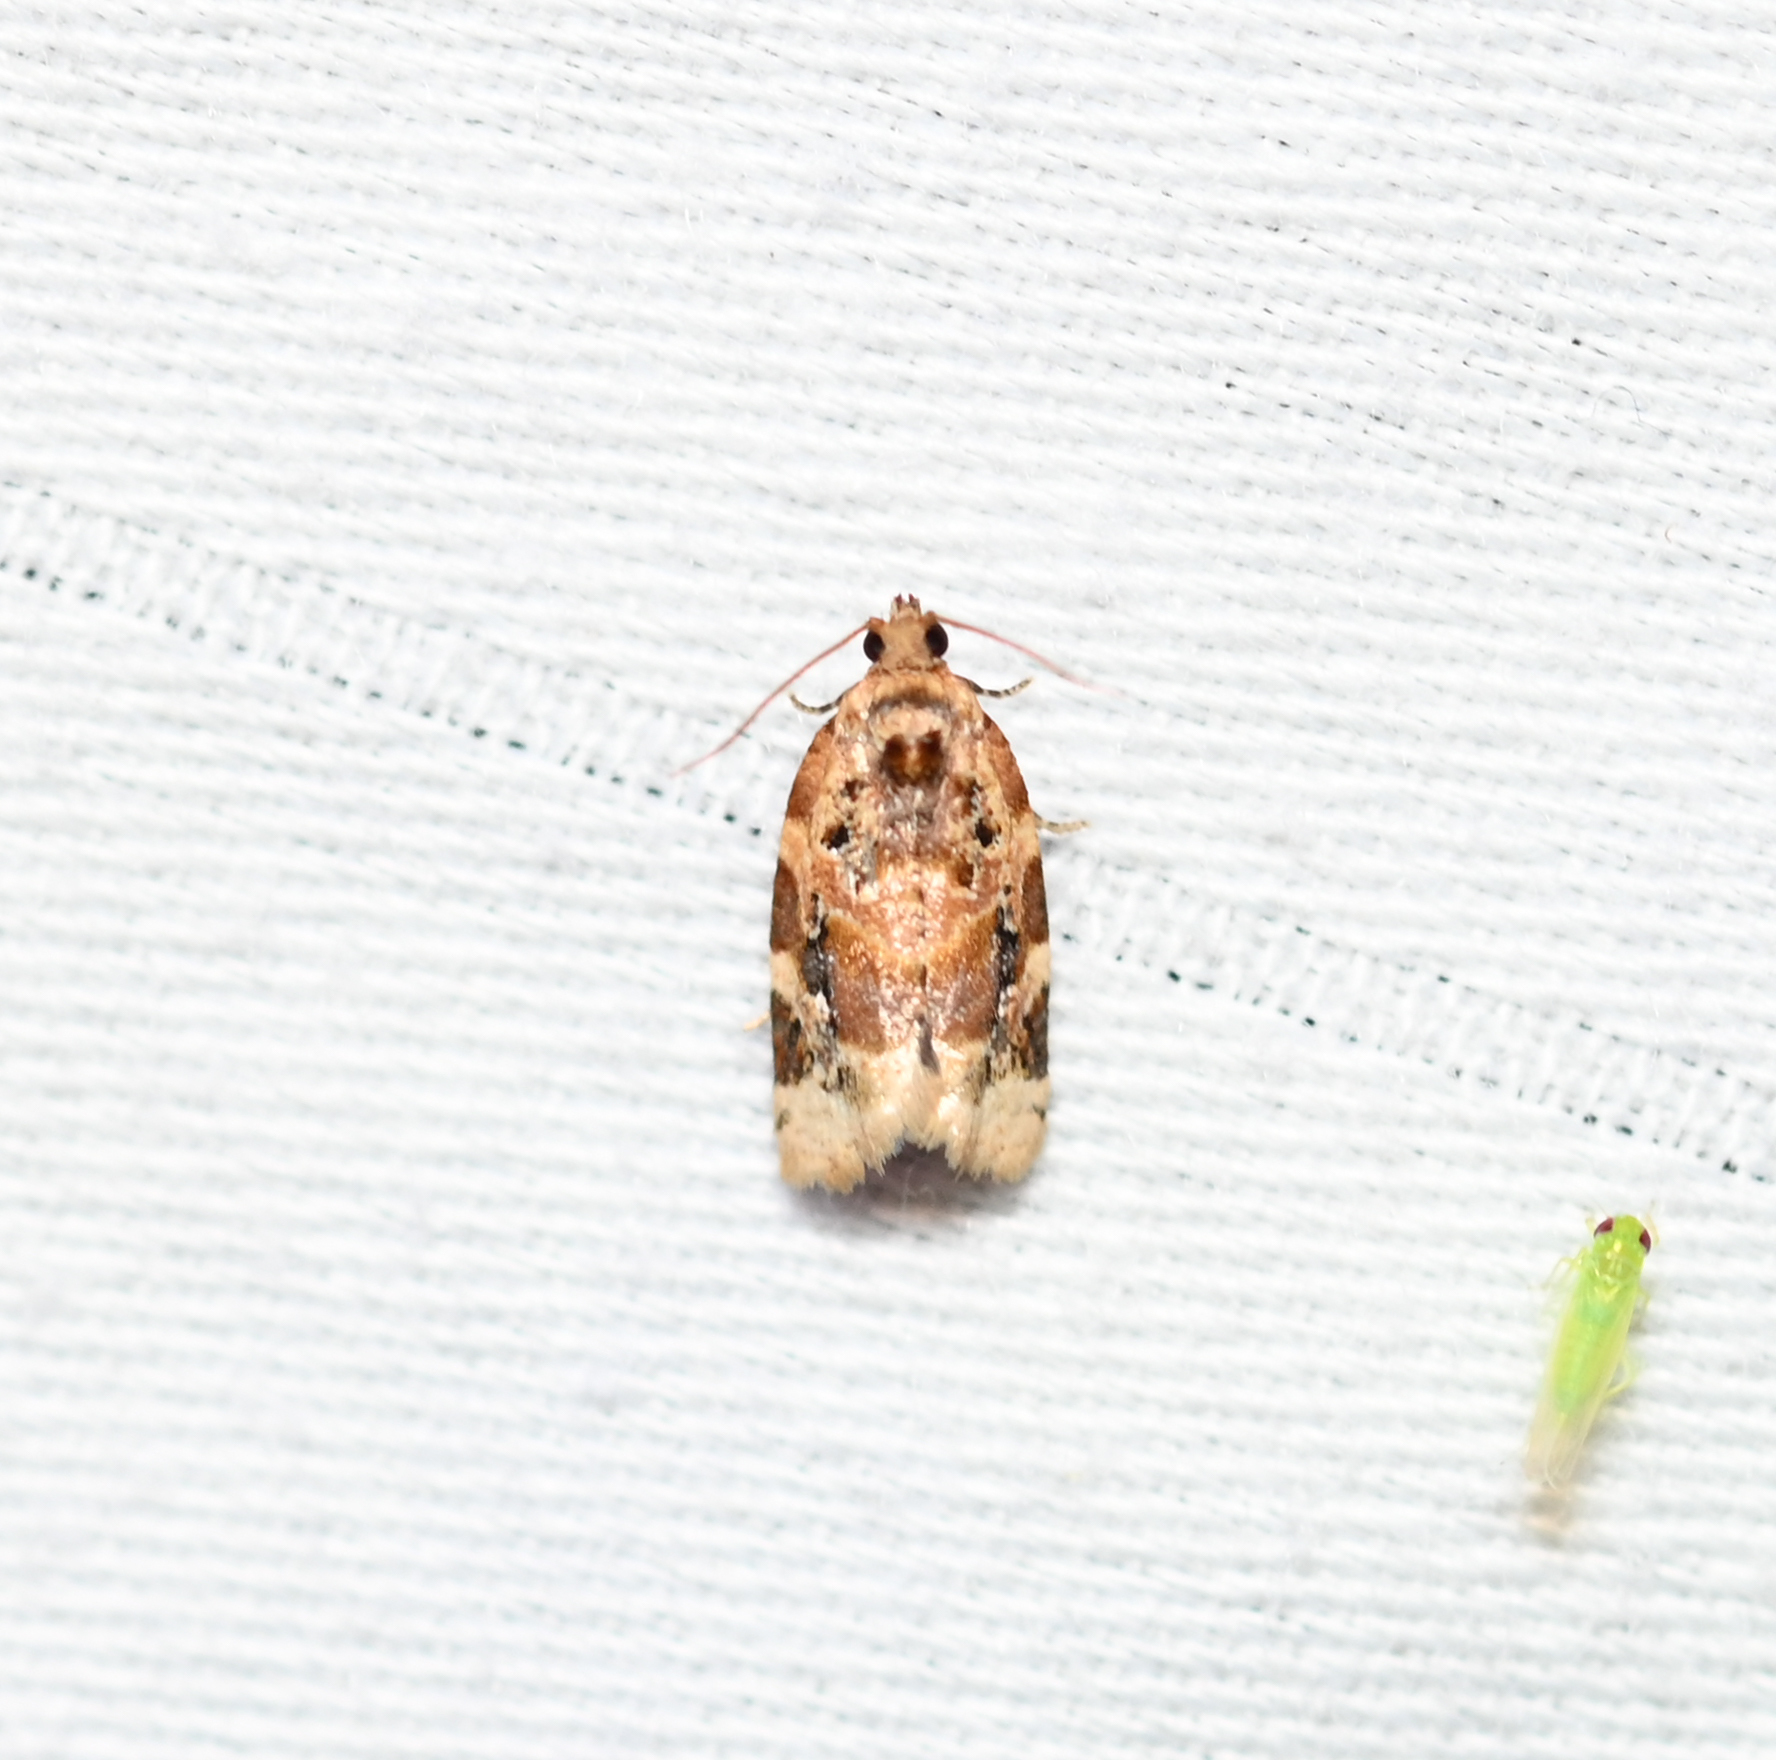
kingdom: Animalia
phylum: Arthropoda
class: Insecta
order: Lepidoptera
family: Tortricidae
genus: Argyrotaenia
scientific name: Argyrotaenia velutinana
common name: Red-banded leafroller moth
